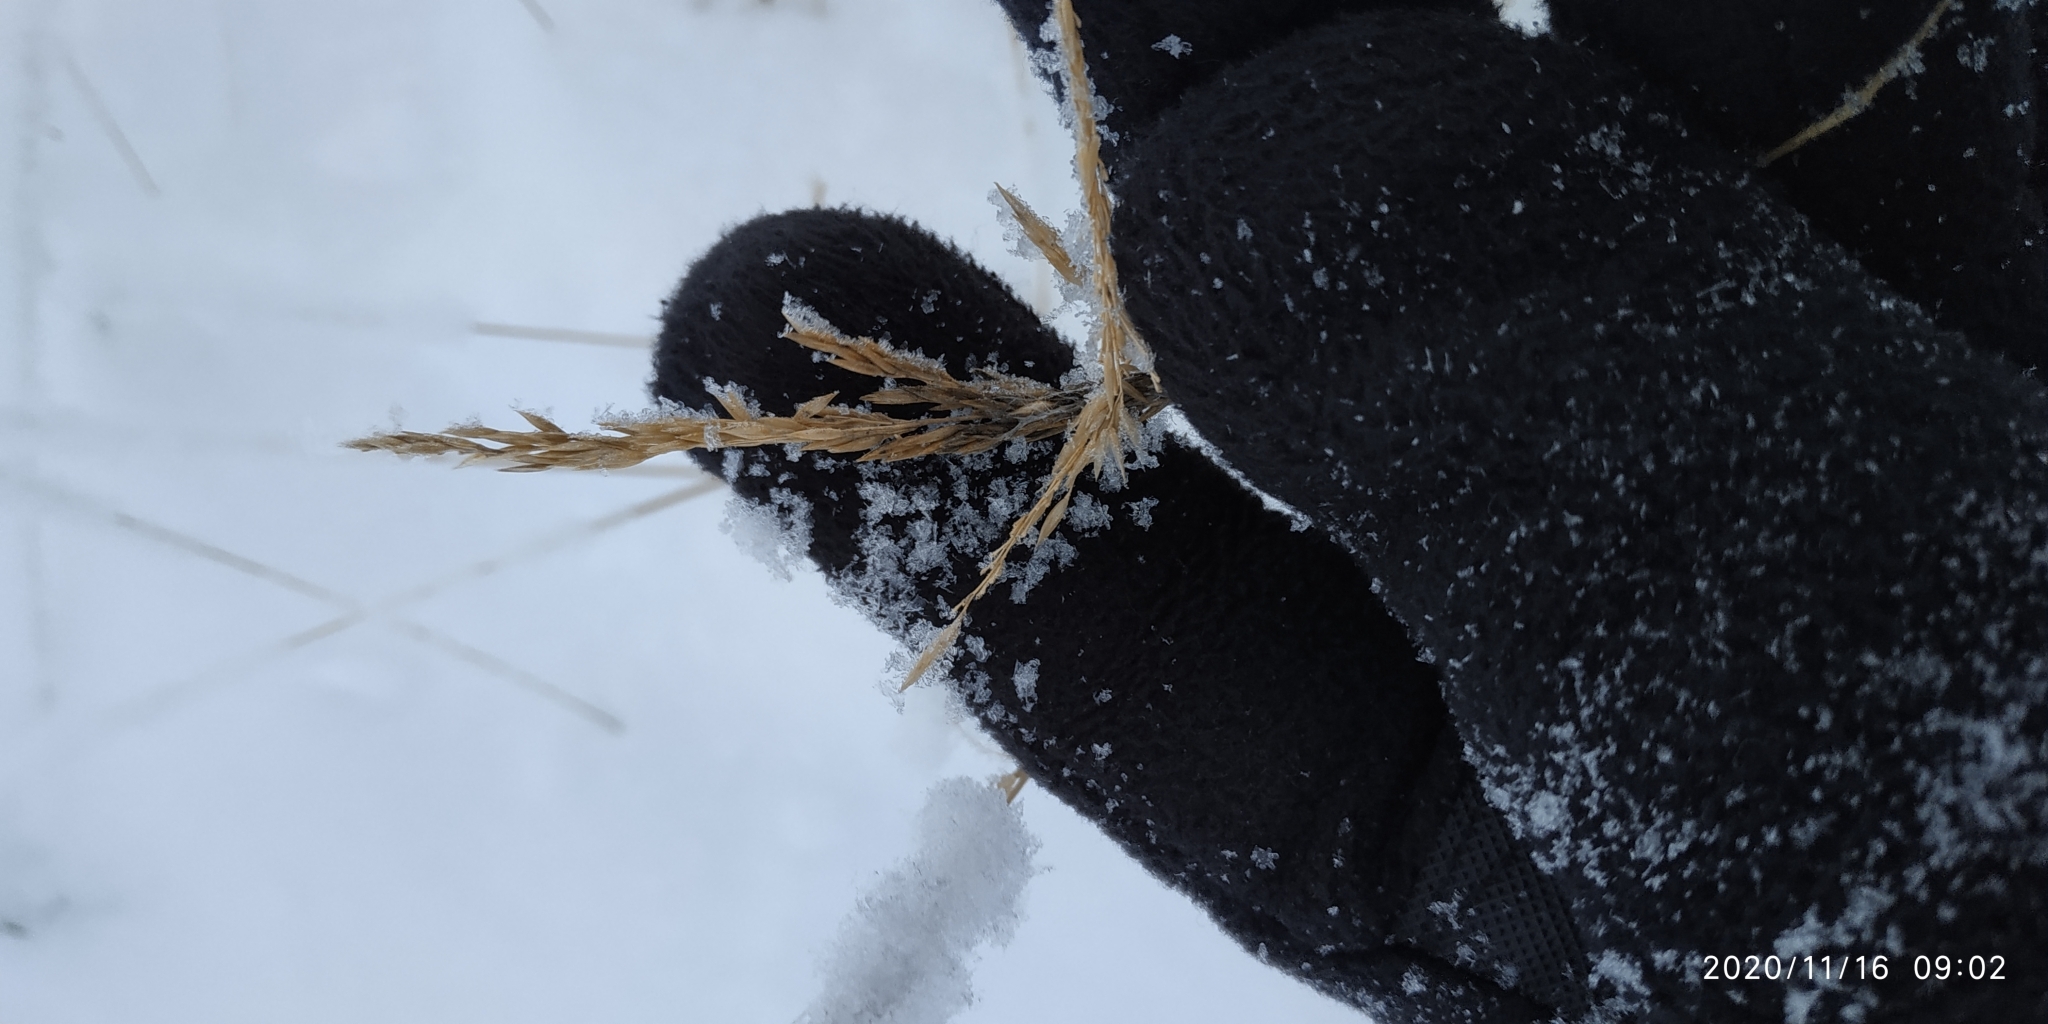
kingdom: Plantae
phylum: Tracheophyta
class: Liliopsida
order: Poales
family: Poaceae
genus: Calamagrostis
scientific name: Calamagrostis purpurea
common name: Scandinavian small-reed
